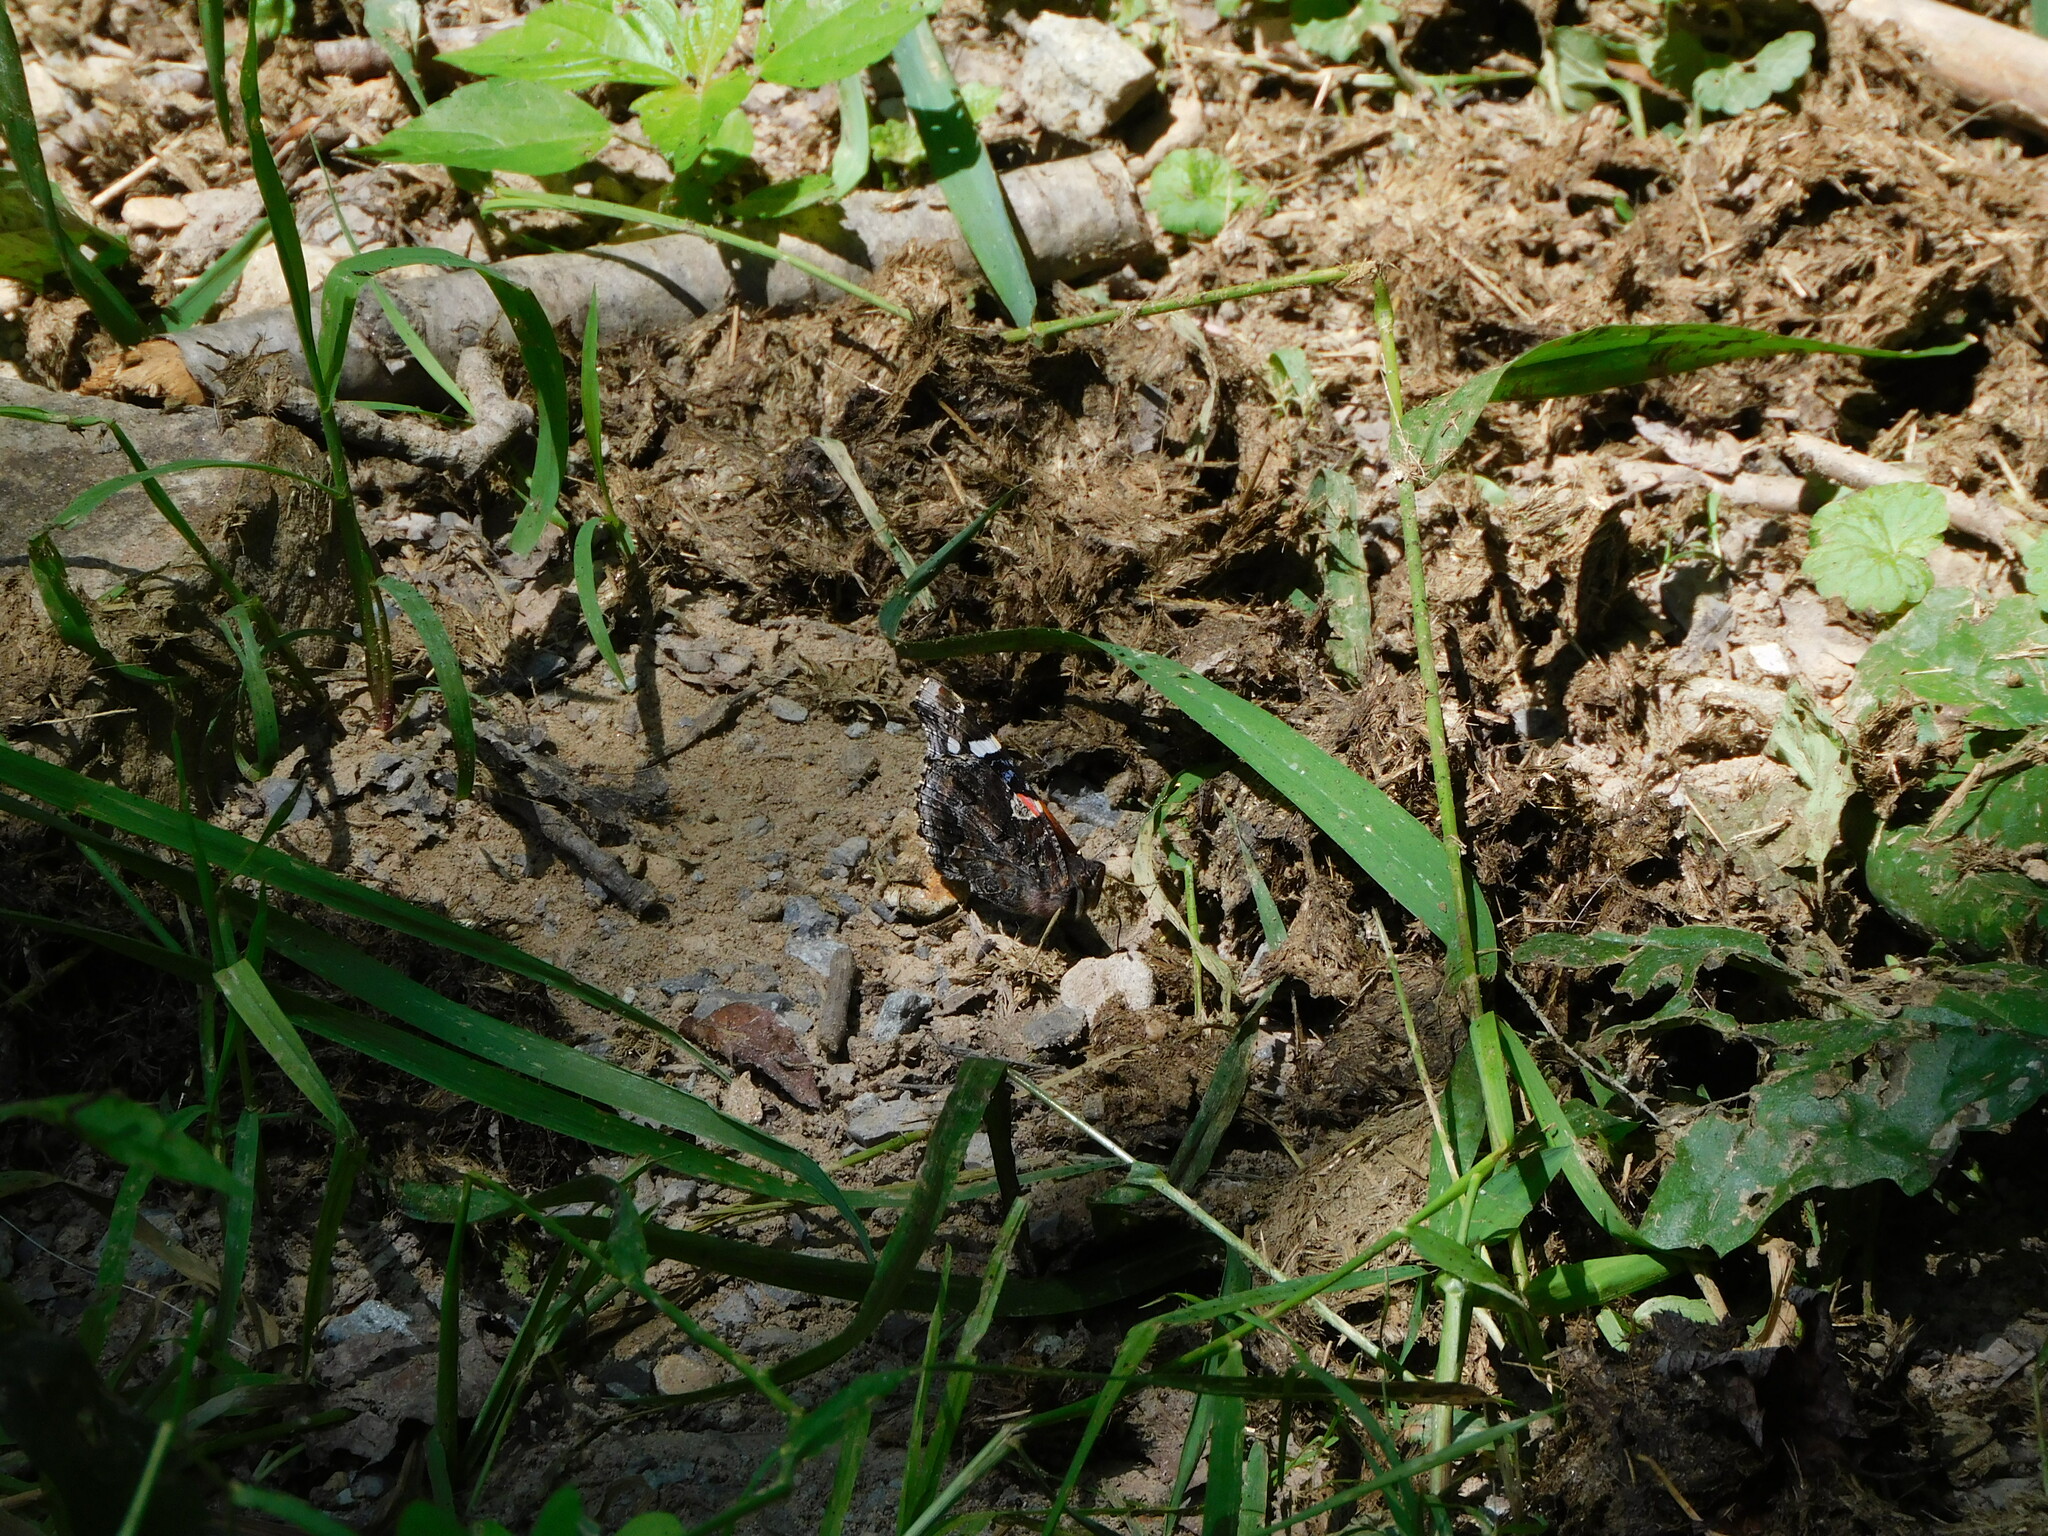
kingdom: Animalia
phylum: Arthropoda
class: Insecta
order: Lepidoptera
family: Nymphalidae
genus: Vanessa
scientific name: Vanessa atalanta
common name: Red admiral
